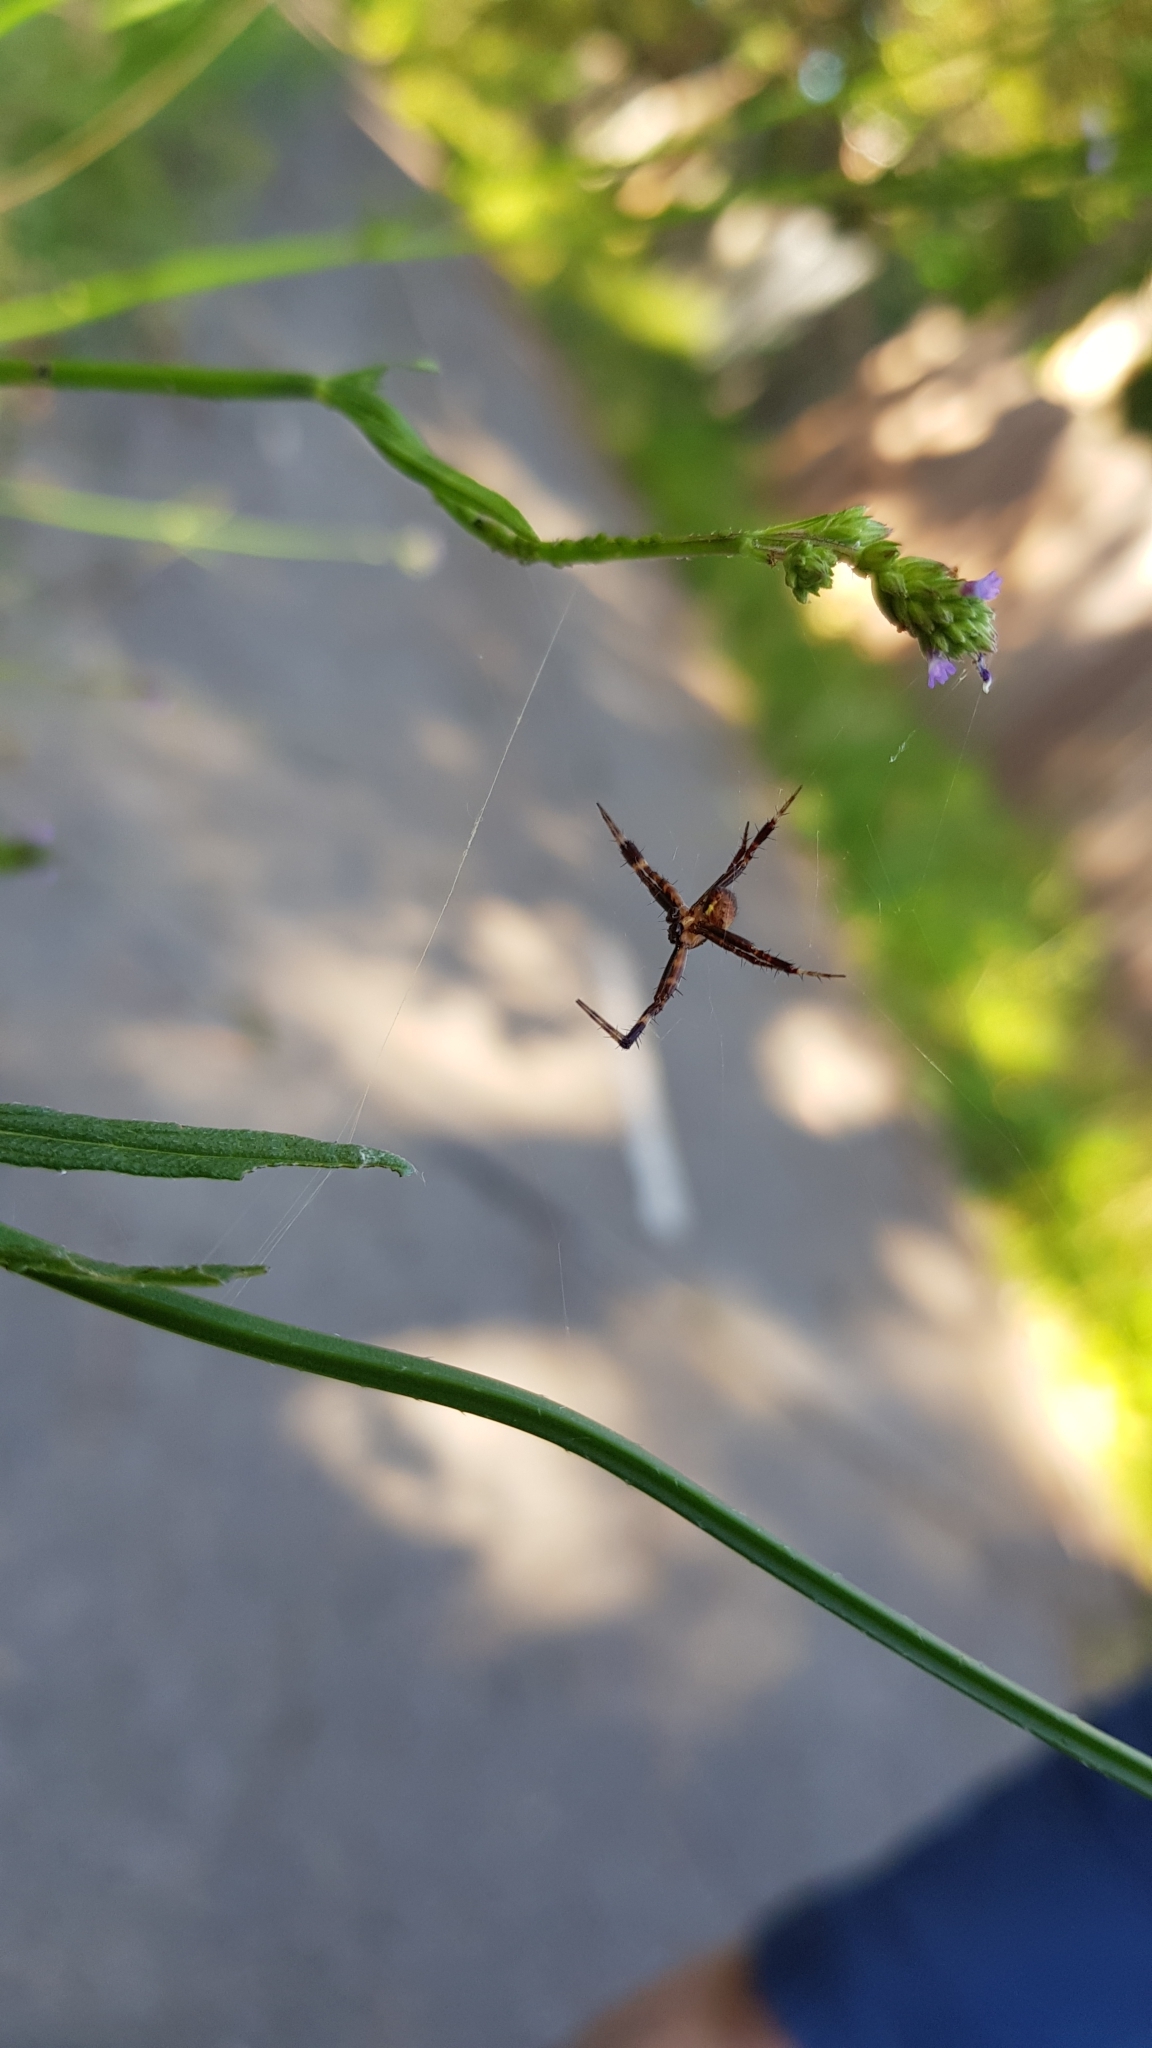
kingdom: Animalia
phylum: Arthropoda
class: Arachnida
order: Araneae
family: Araneidae
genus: Argiope
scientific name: Argiope keyserlingi
